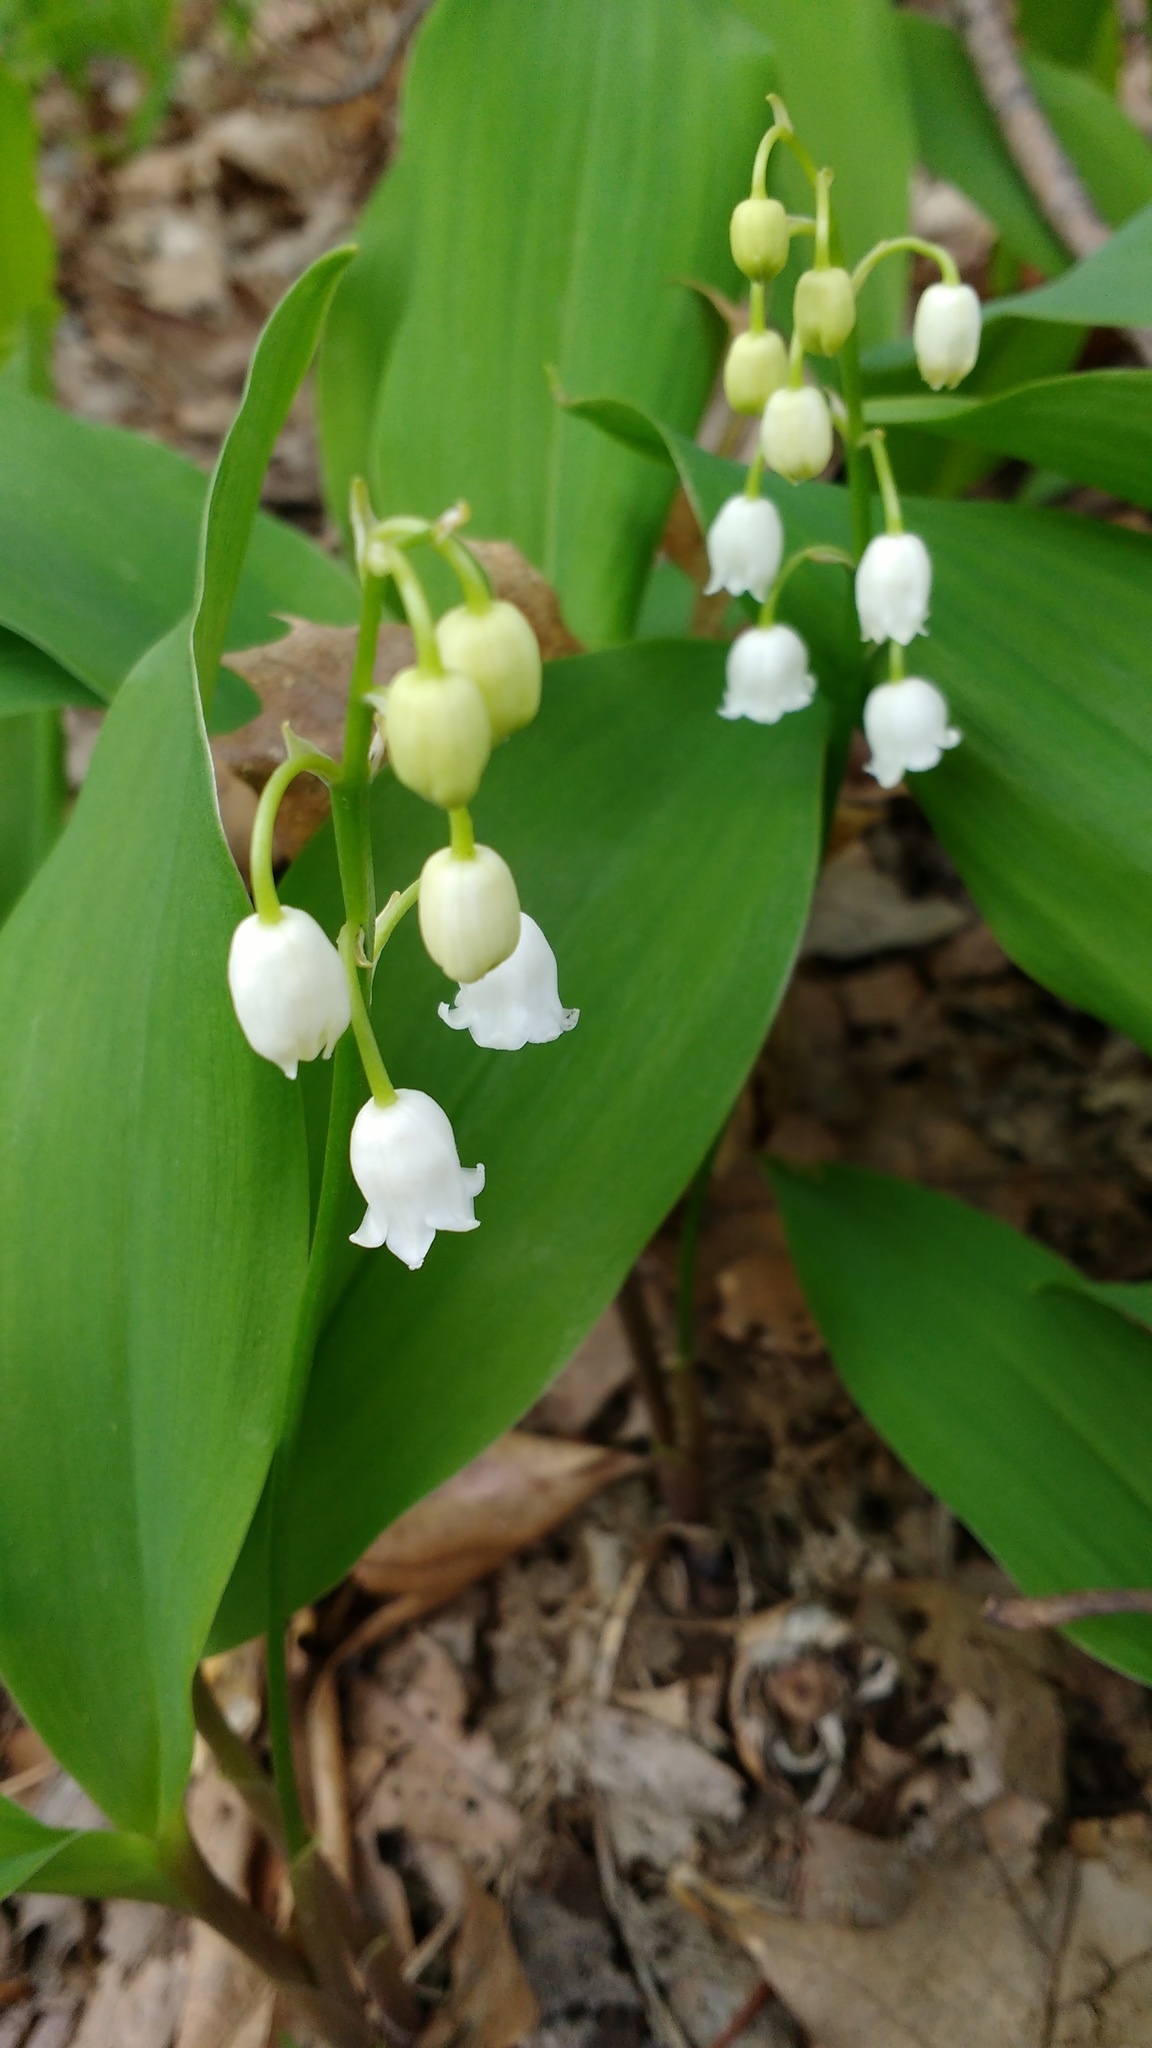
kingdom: Plantae
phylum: Tracheophyta
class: Liliopsida
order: Asparagales
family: Asparagaceae
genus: Convallaria
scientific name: Convallaria majalis
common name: Lily-of-the-valley
